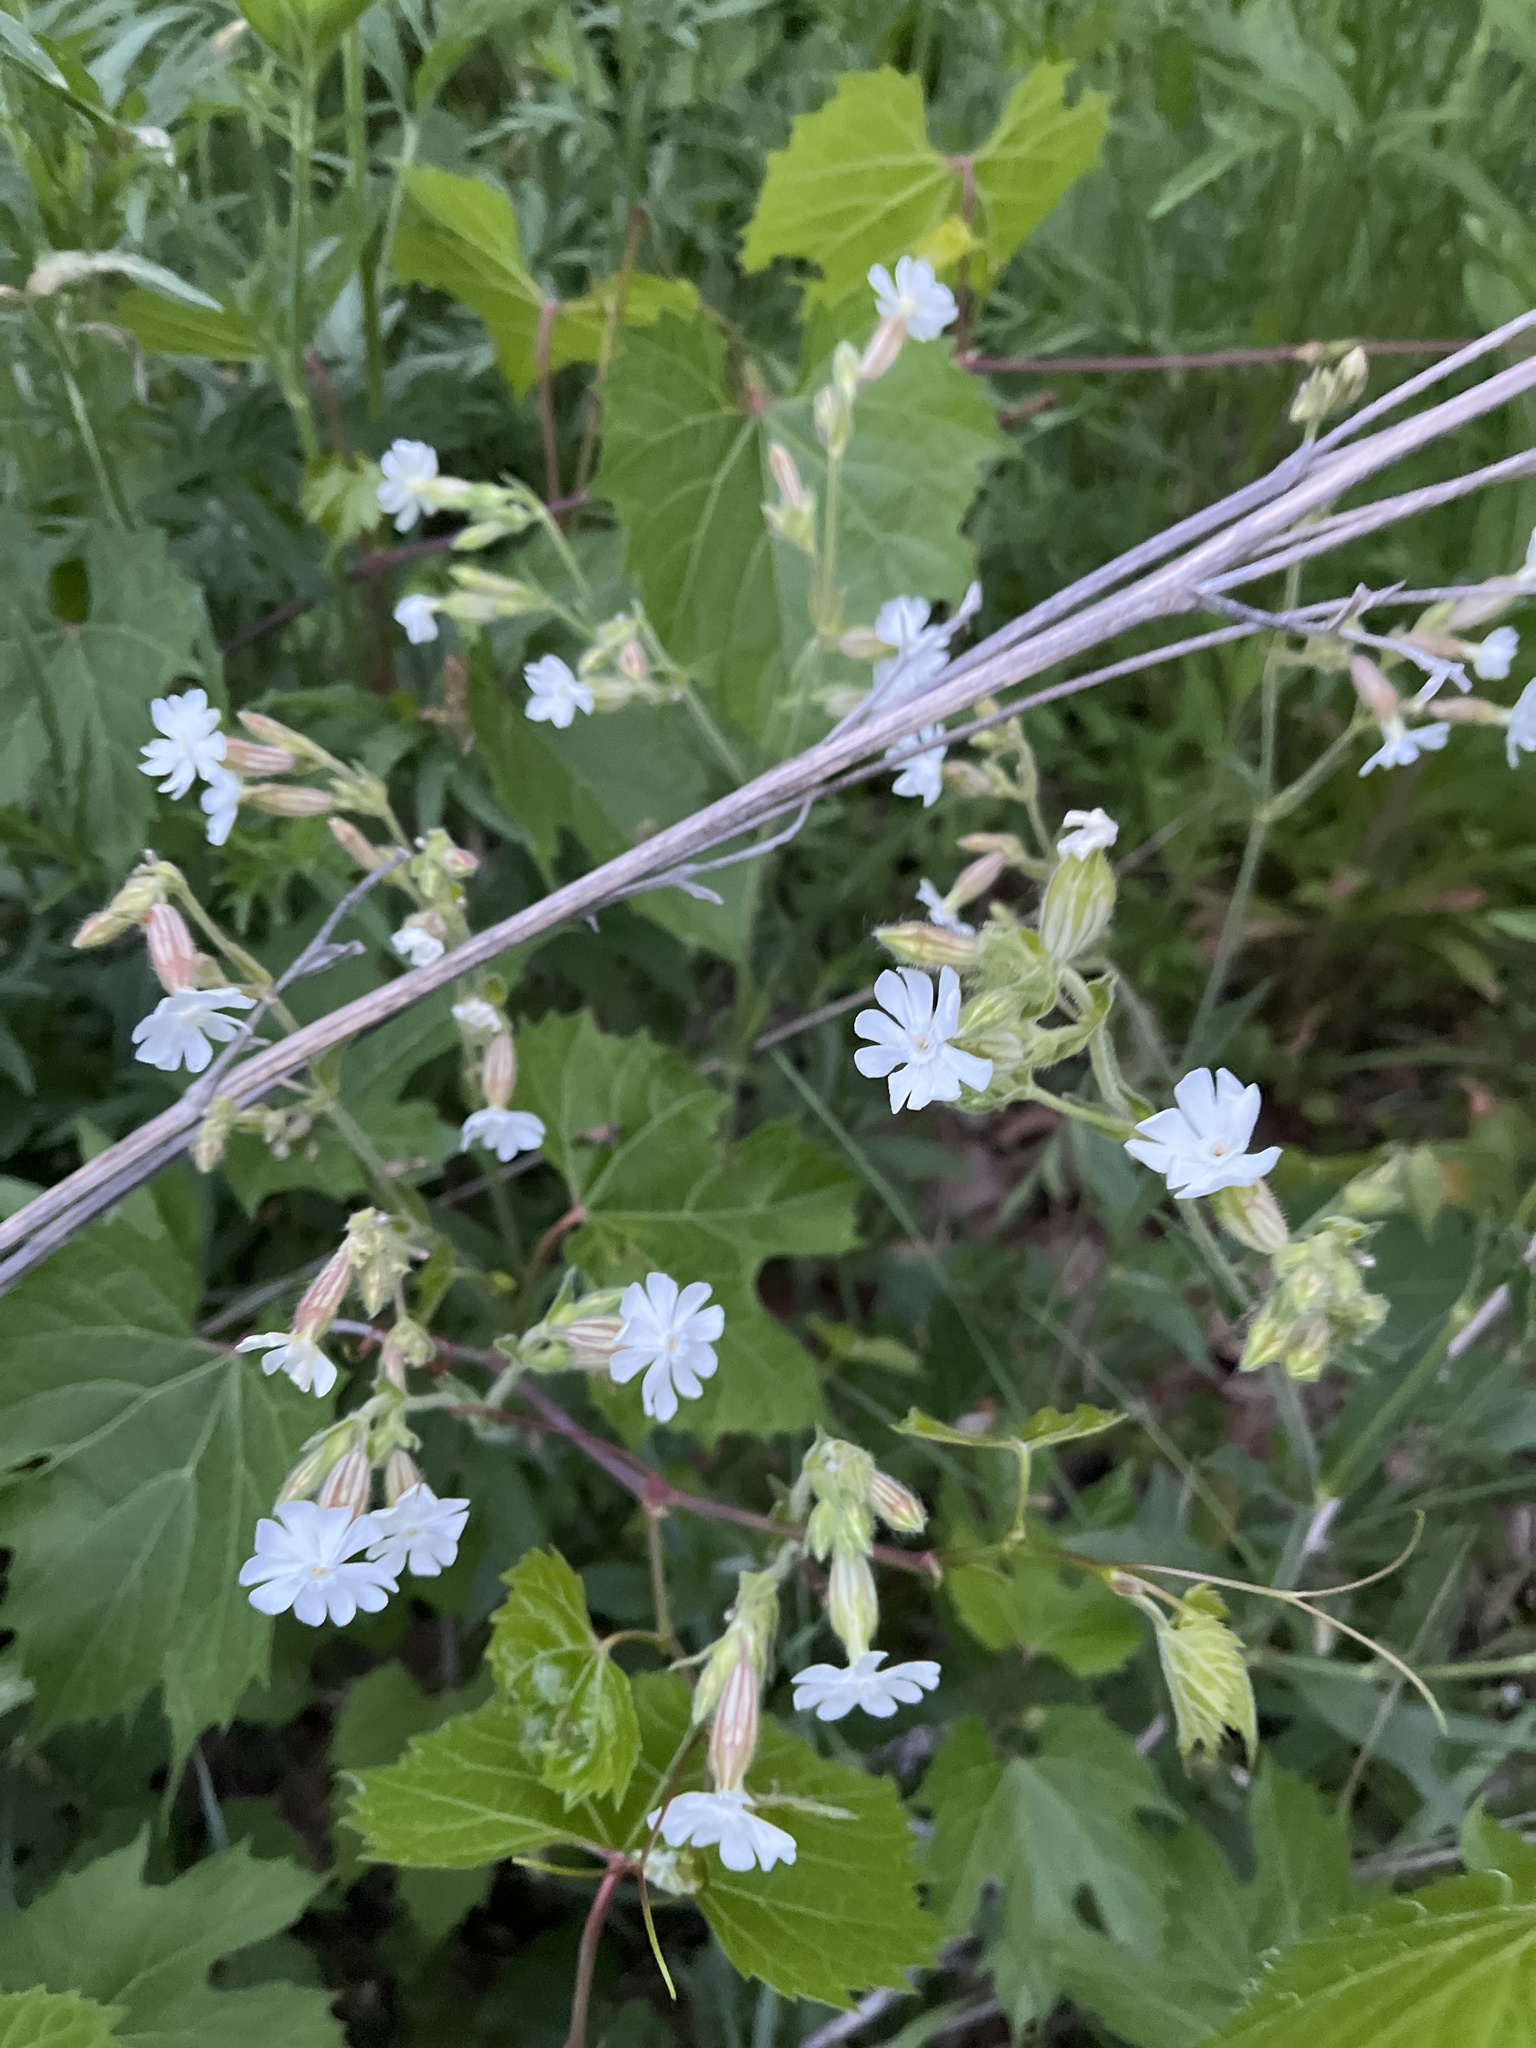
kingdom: Plantae
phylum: Tracheophyta
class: Magnoliopsida
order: Caryophyllales
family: Caryophyllaceae
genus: Silene
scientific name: Silene latifolia
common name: White campion
